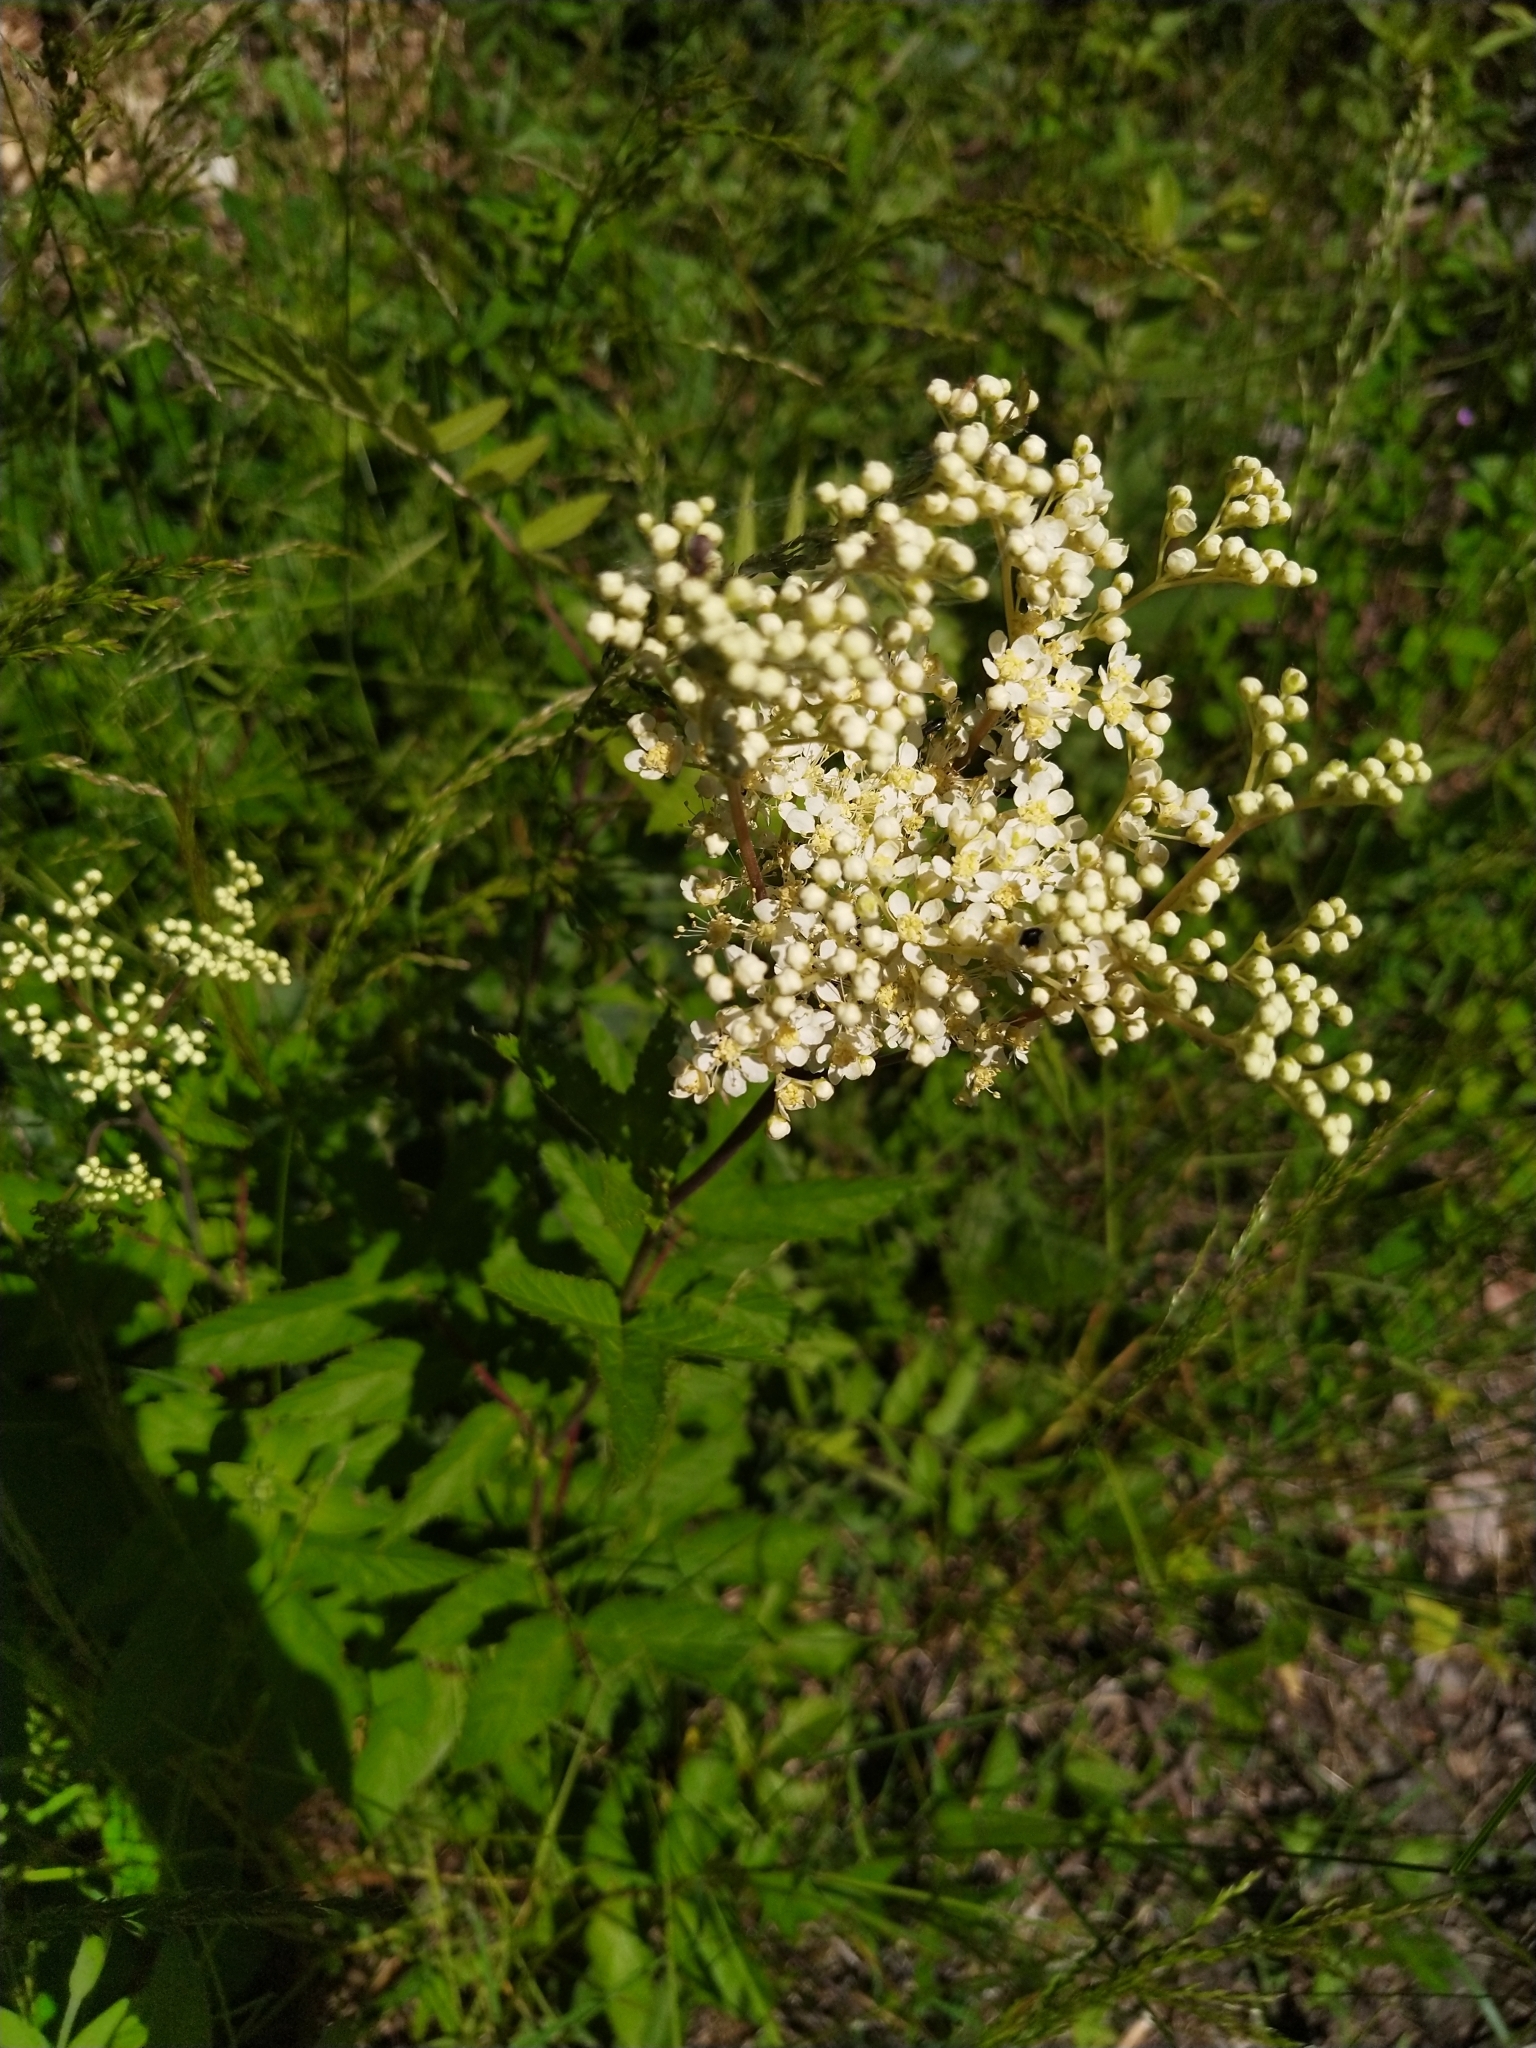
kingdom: Plantae
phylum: Tracheophyta
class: Magnoliopsida
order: Rosales
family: Rosaceae
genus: Filipendula
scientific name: Filipendula ulmaria
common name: Meadowsweet
